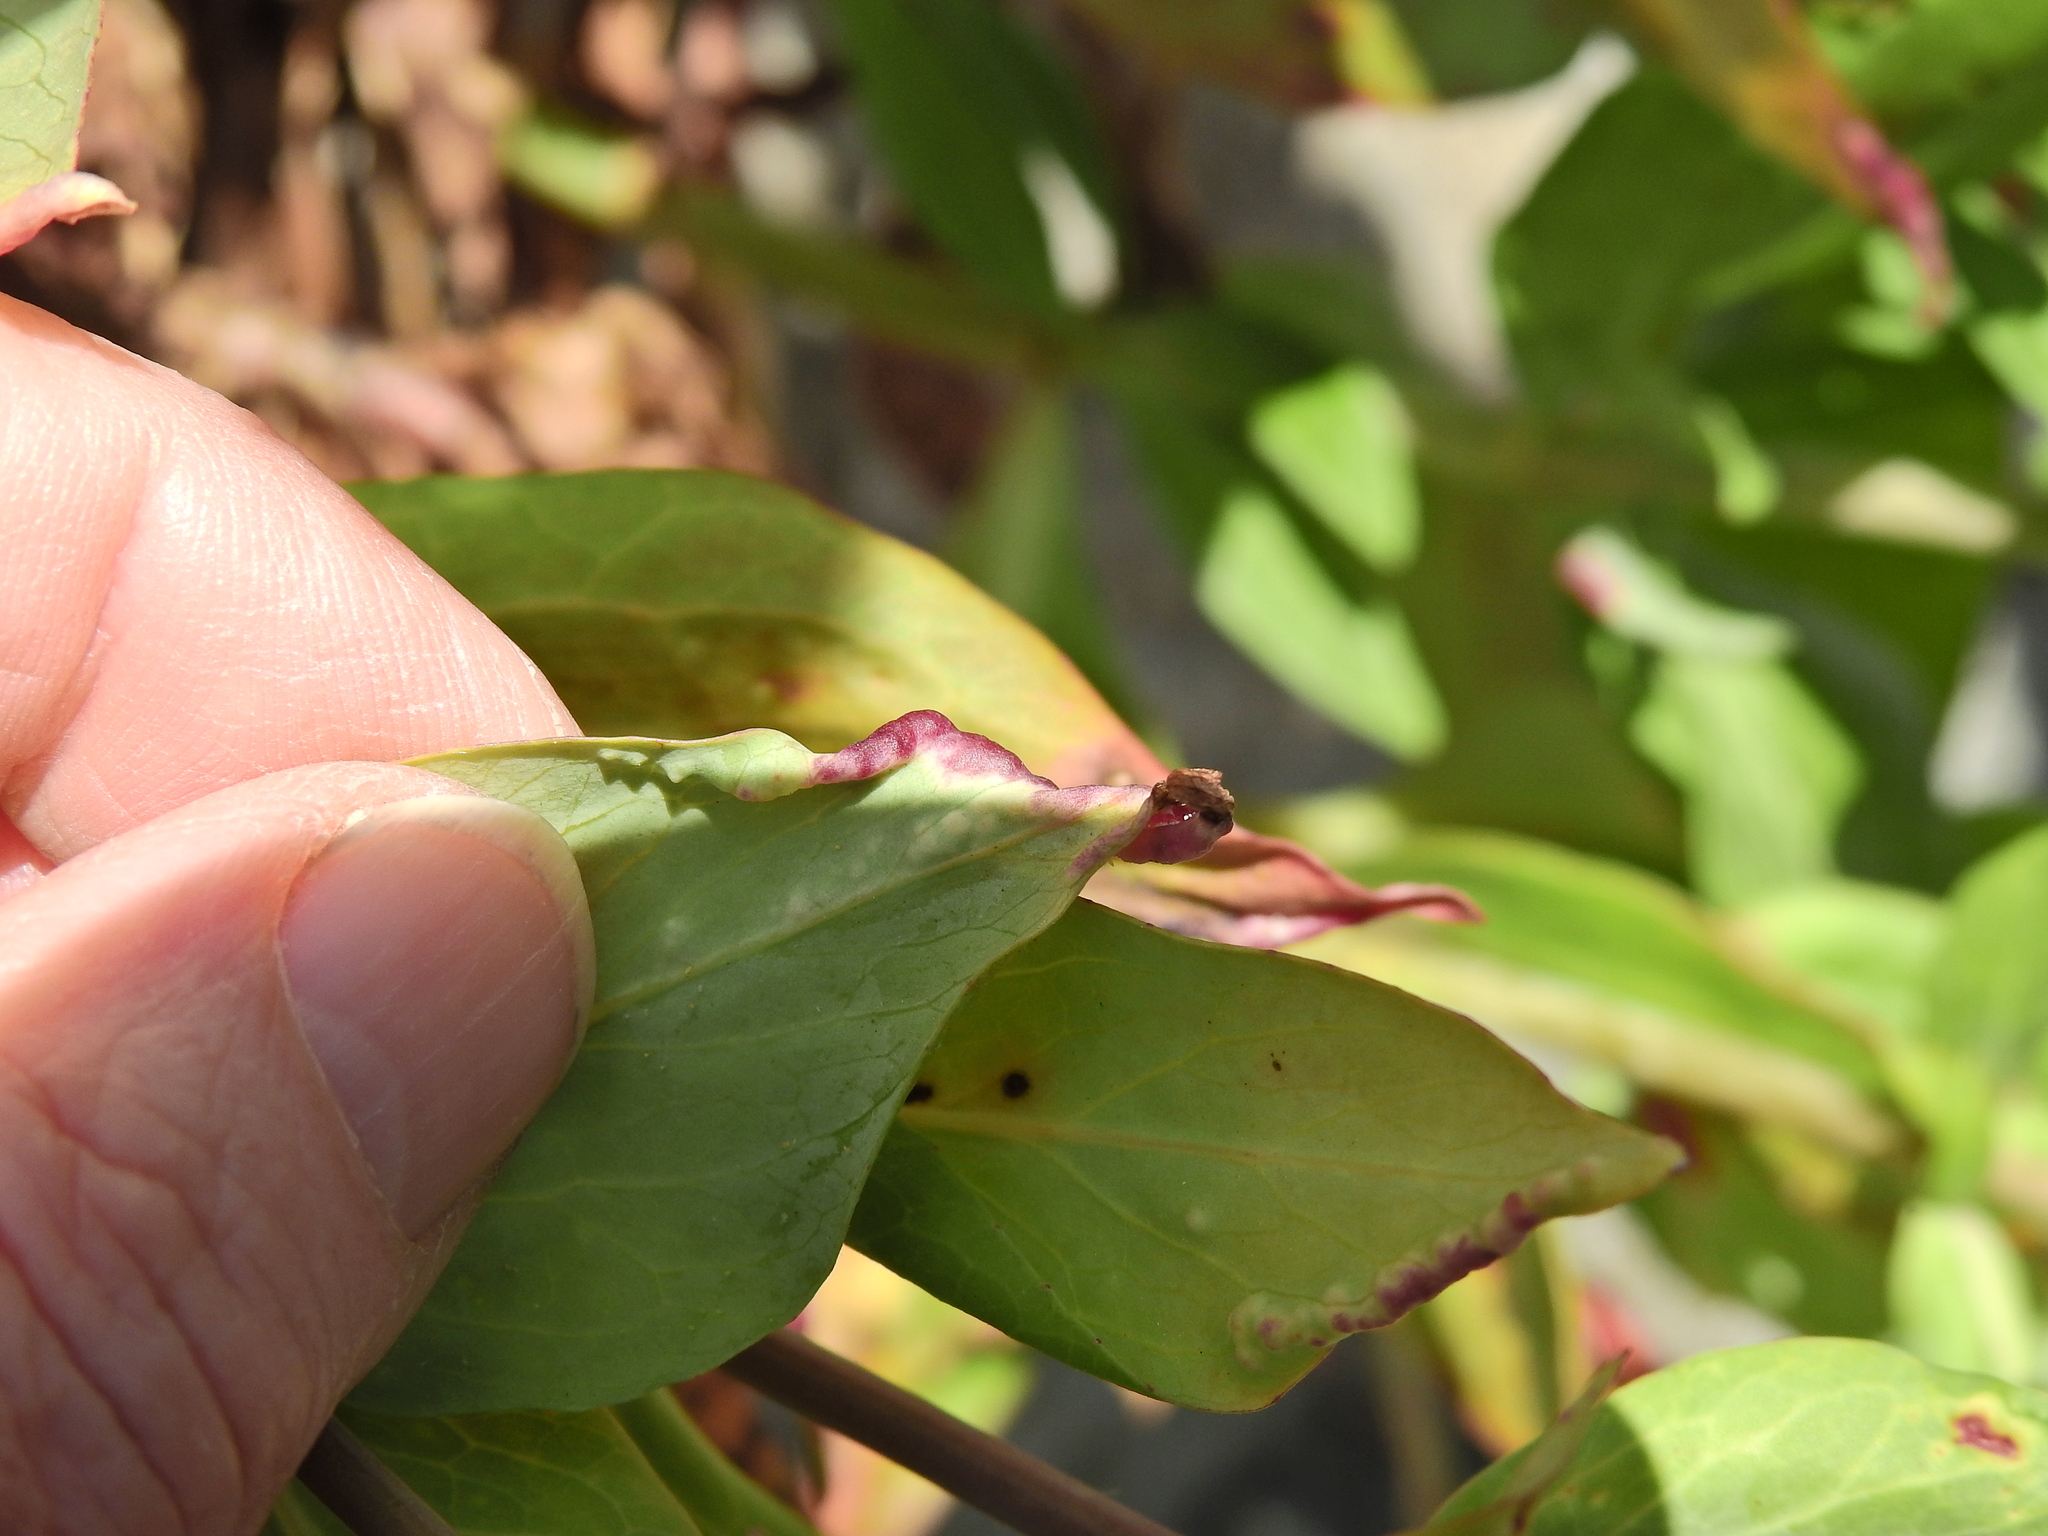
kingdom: Animalia
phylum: Arthropoda
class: Insecta
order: Hemiptera
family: Triozidae
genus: Trioza
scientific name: Trioza centranthi
